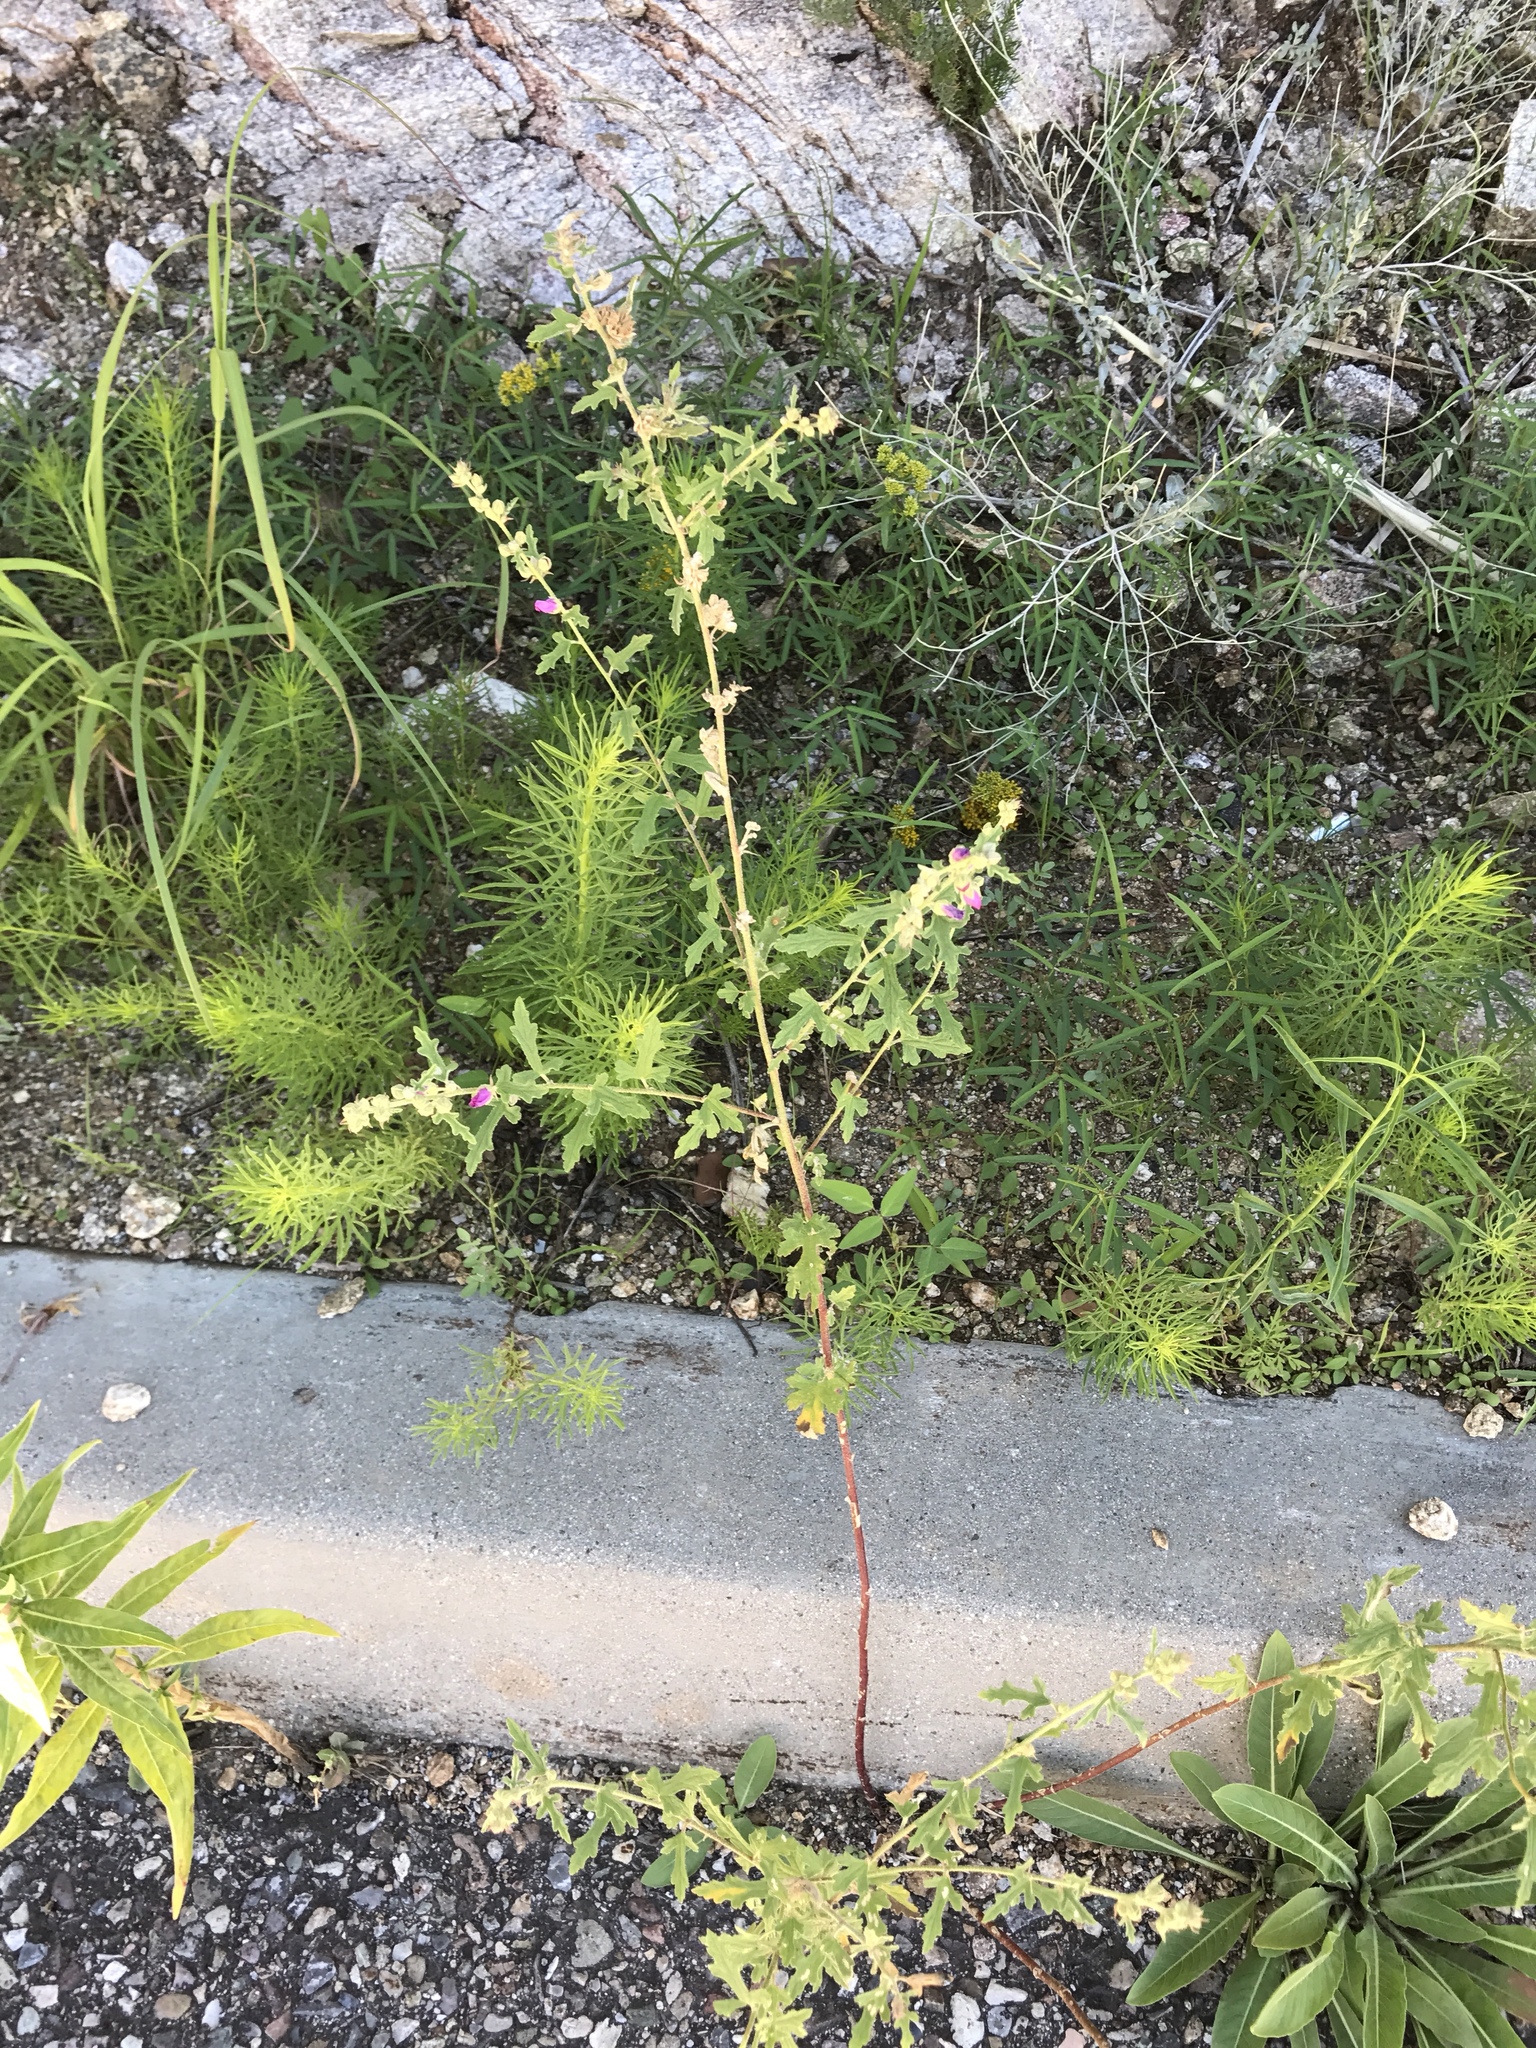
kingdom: Plantae
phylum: Tracheophyta
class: Magnoliopsida
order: Malvales
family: Malvaceae
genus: Sphaeralcea
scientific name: Sphaeralcea laxa
